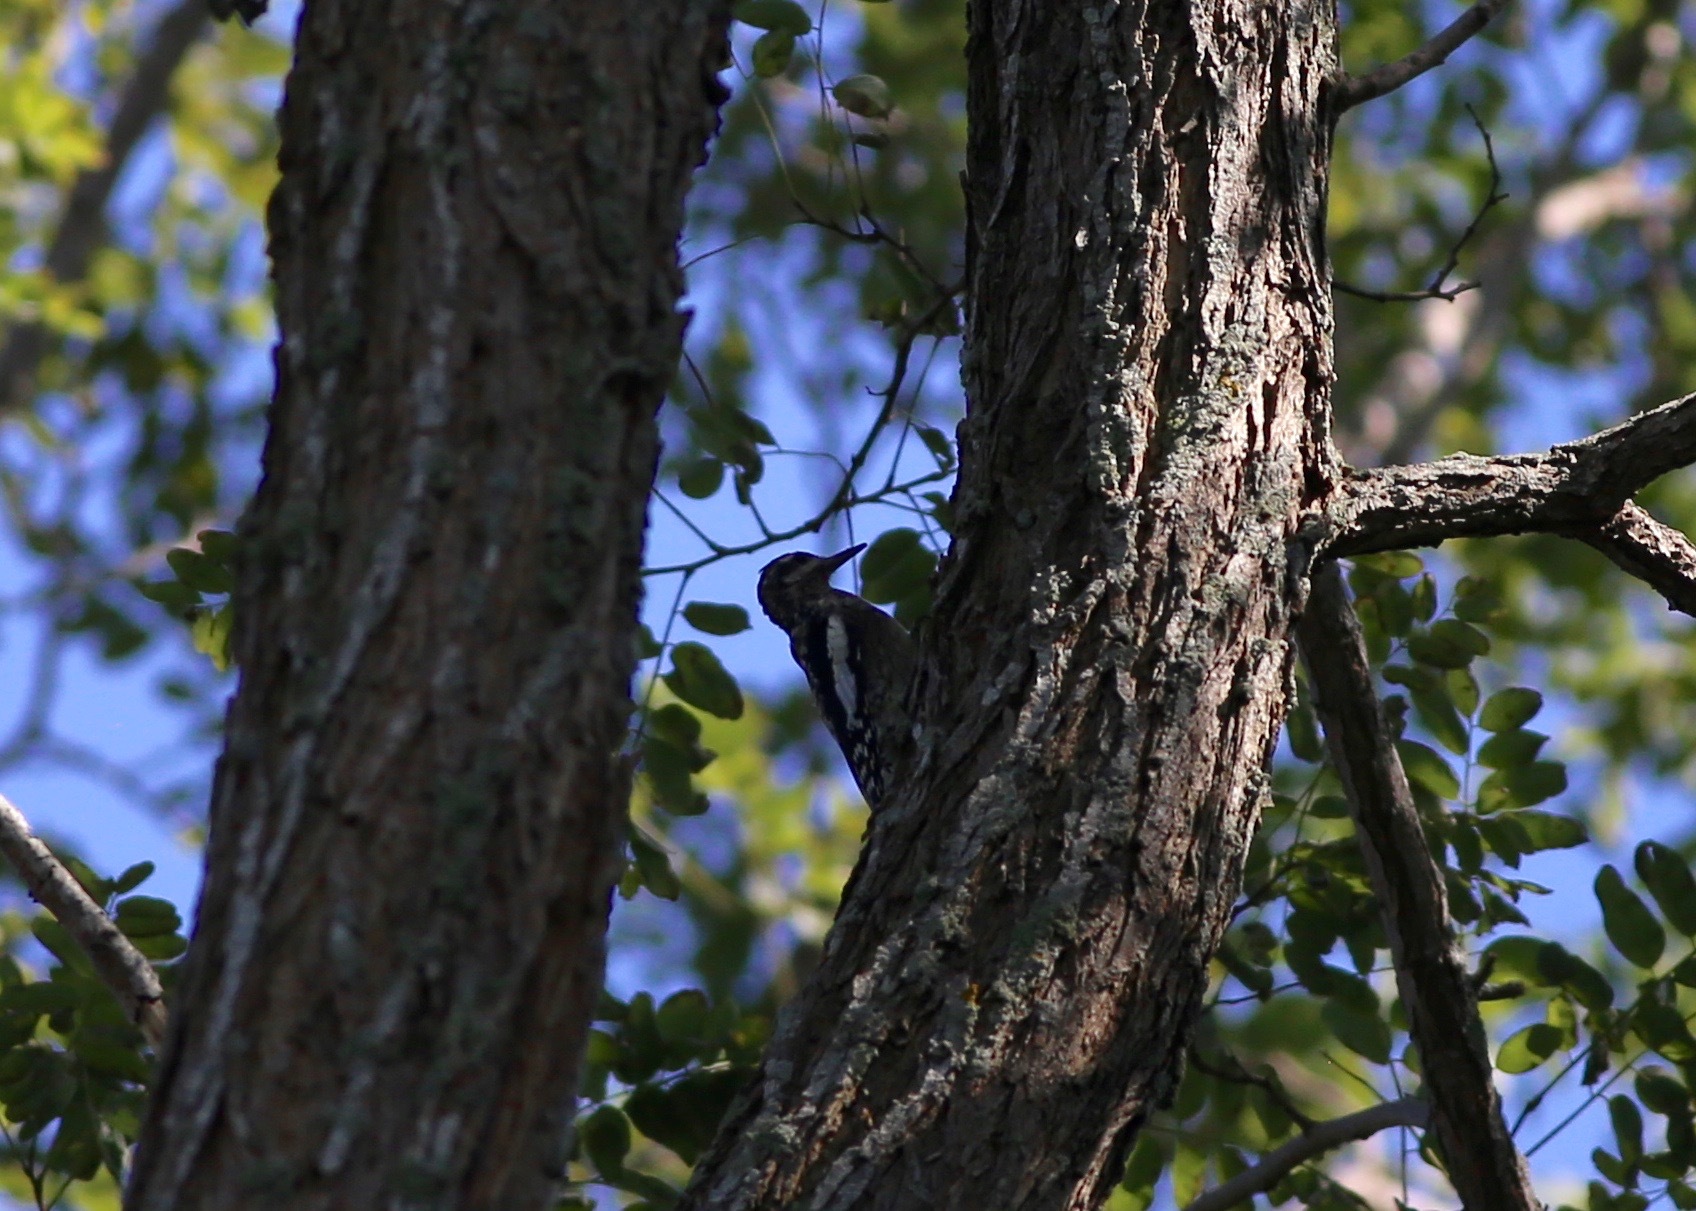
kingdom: Animalia
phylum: Chordata
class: Aves
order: Piciformes
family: Picidae
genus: Sphyrapicus
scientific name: Sphyrapicus varius
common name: Yellow-bellied sapsucker
